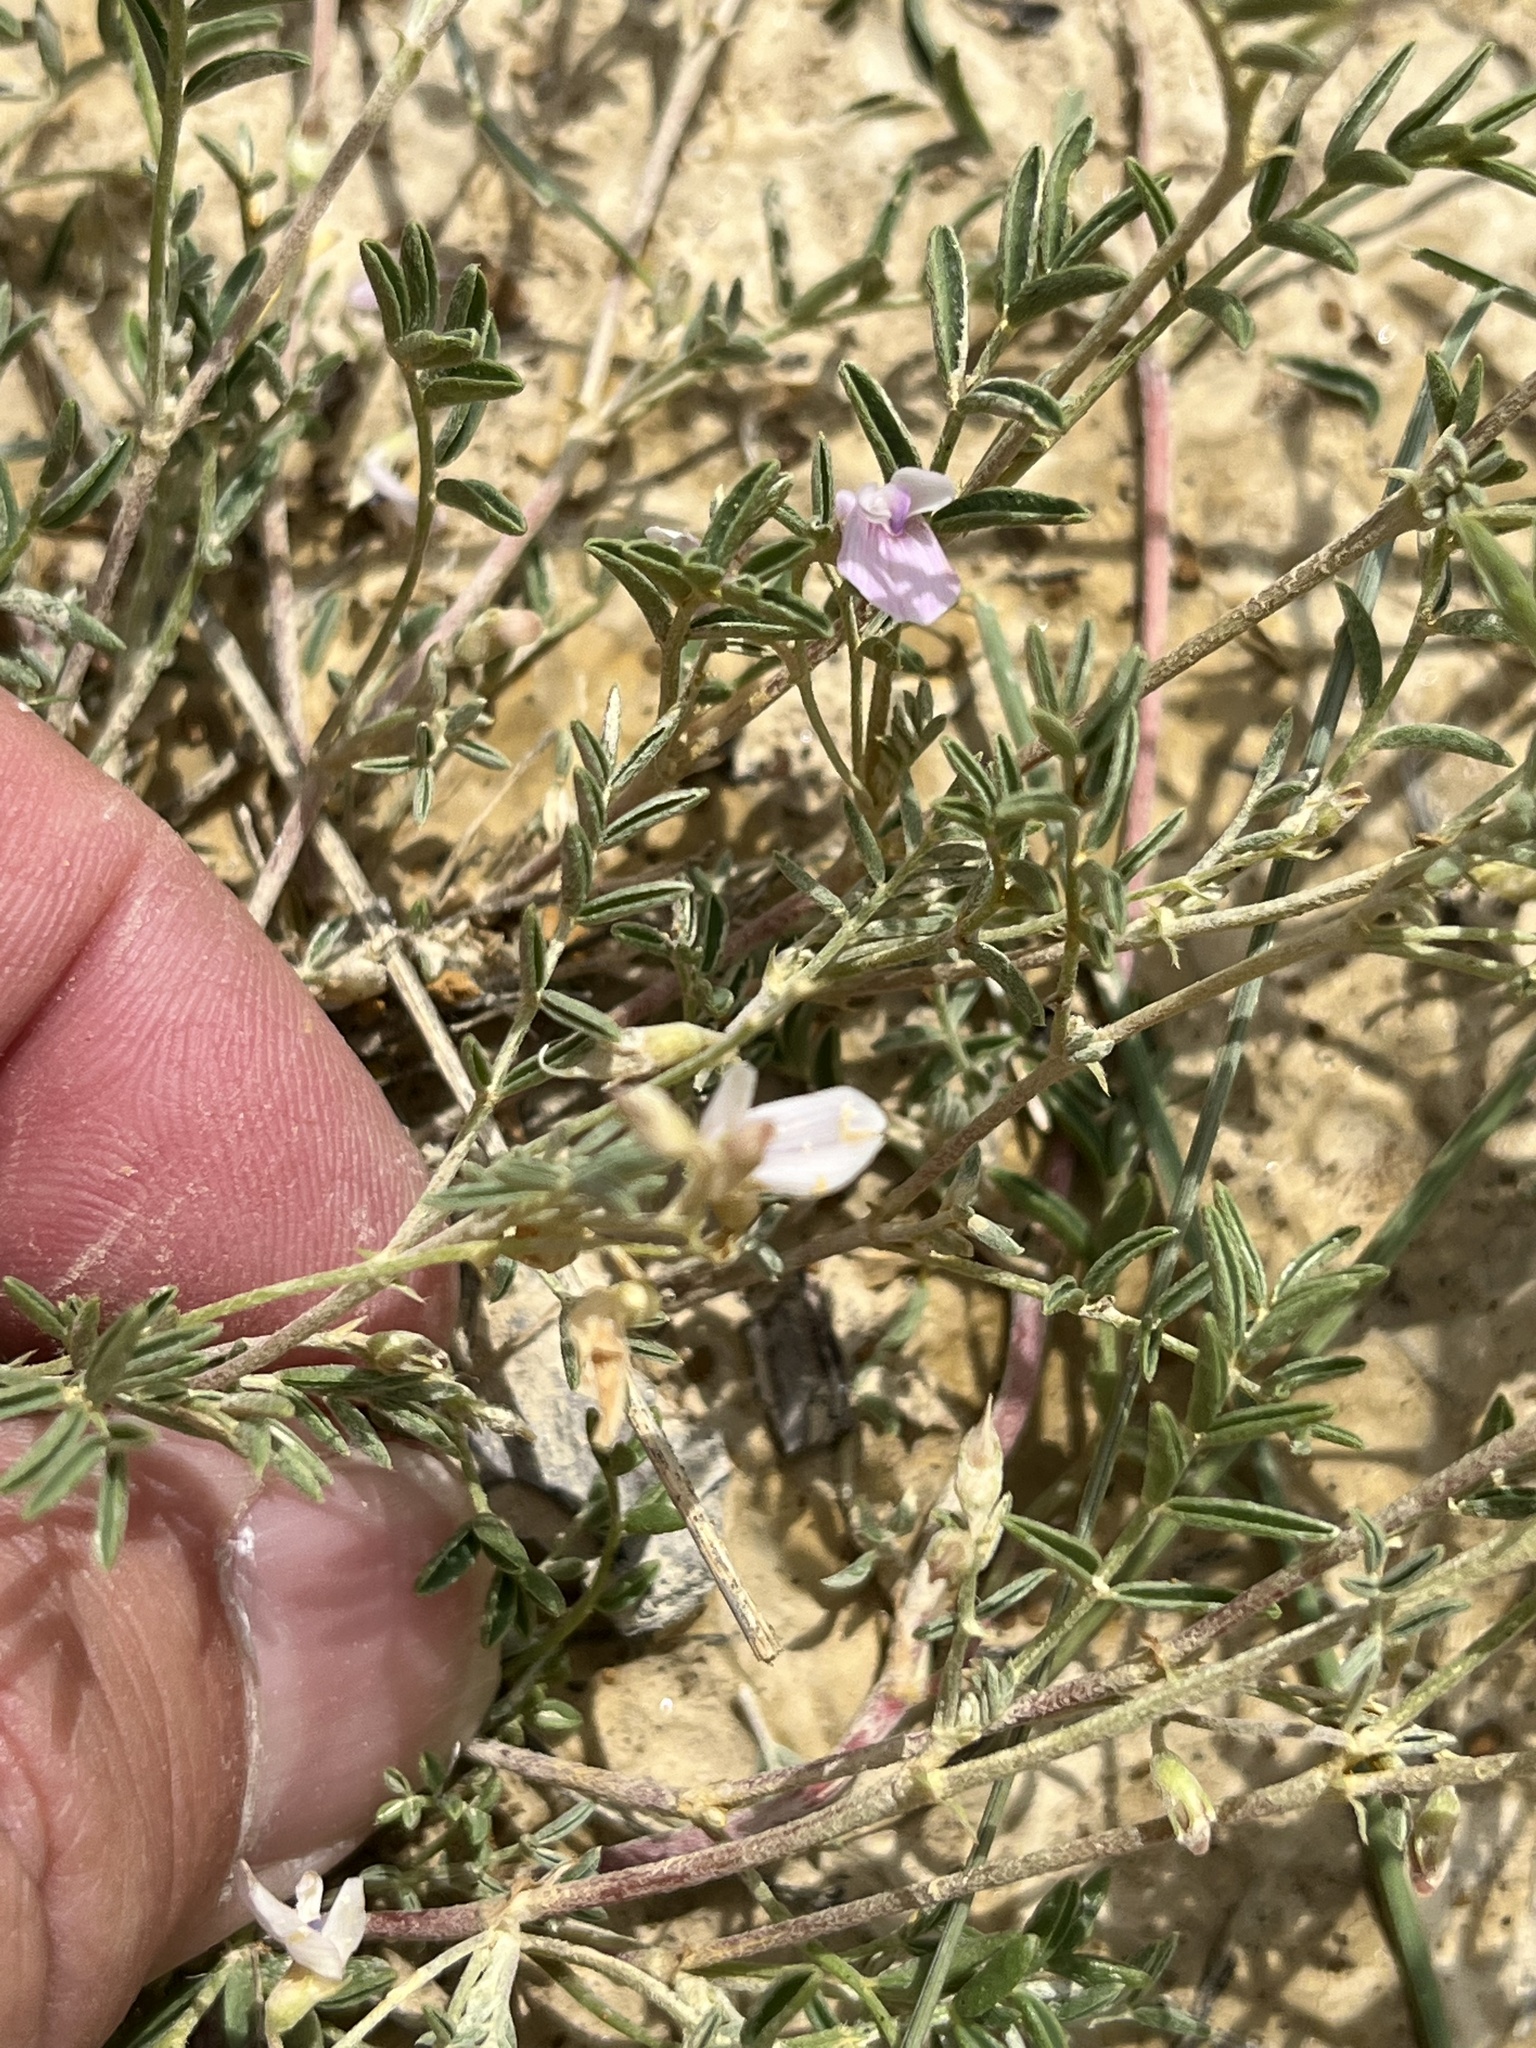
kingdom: Plantae
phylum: Tracheophyta
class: Magnoliopsida
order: Fabales
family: Fabaceae
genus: Astragalus
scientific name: Astragalus vexilliflexus
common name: Bent-flowered milk-vetch
